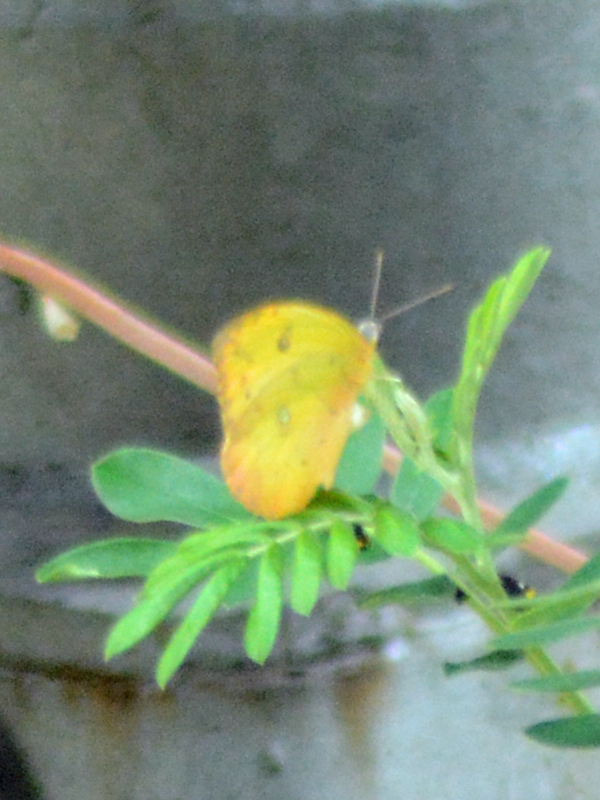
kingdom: Animalia
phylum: Arthropoda
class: Insecta
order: Lepidoptera
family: Pieridae
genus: Phoebis
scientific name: Phoebis philea
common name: Orange-barred giant sulphur
